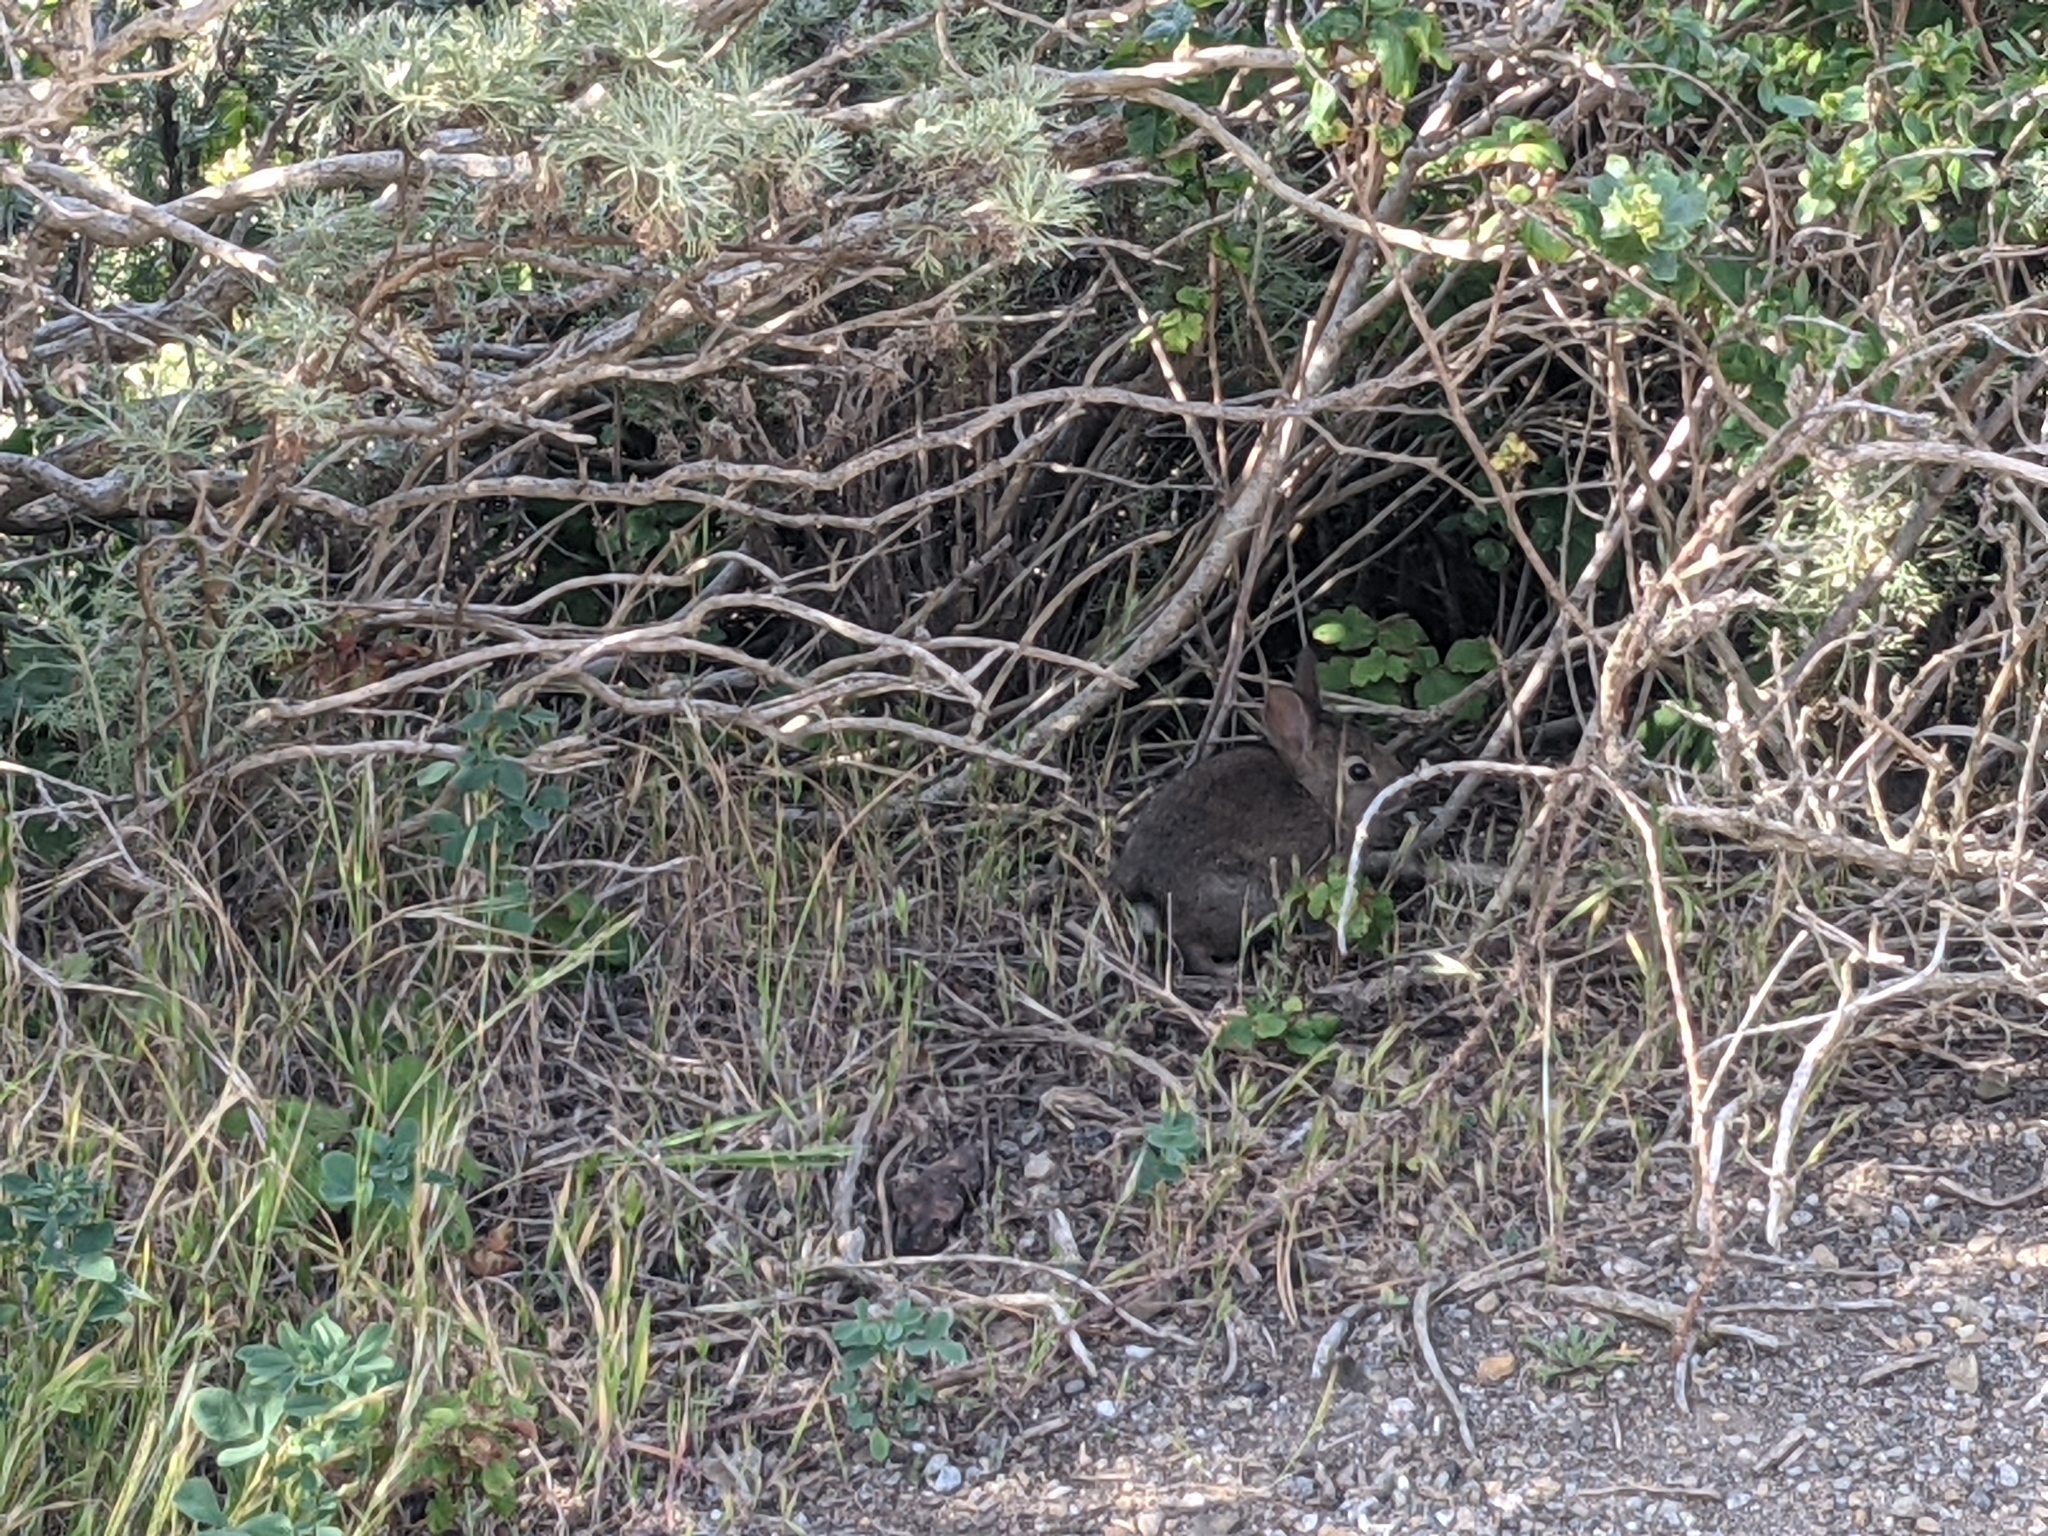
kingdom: Animalia
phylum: Chordata
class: Mammalia
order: Lagomorpha
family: Leporidae
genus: Sylvilagus
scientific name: Sylvilagus bachmani
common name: Brush rabbit
